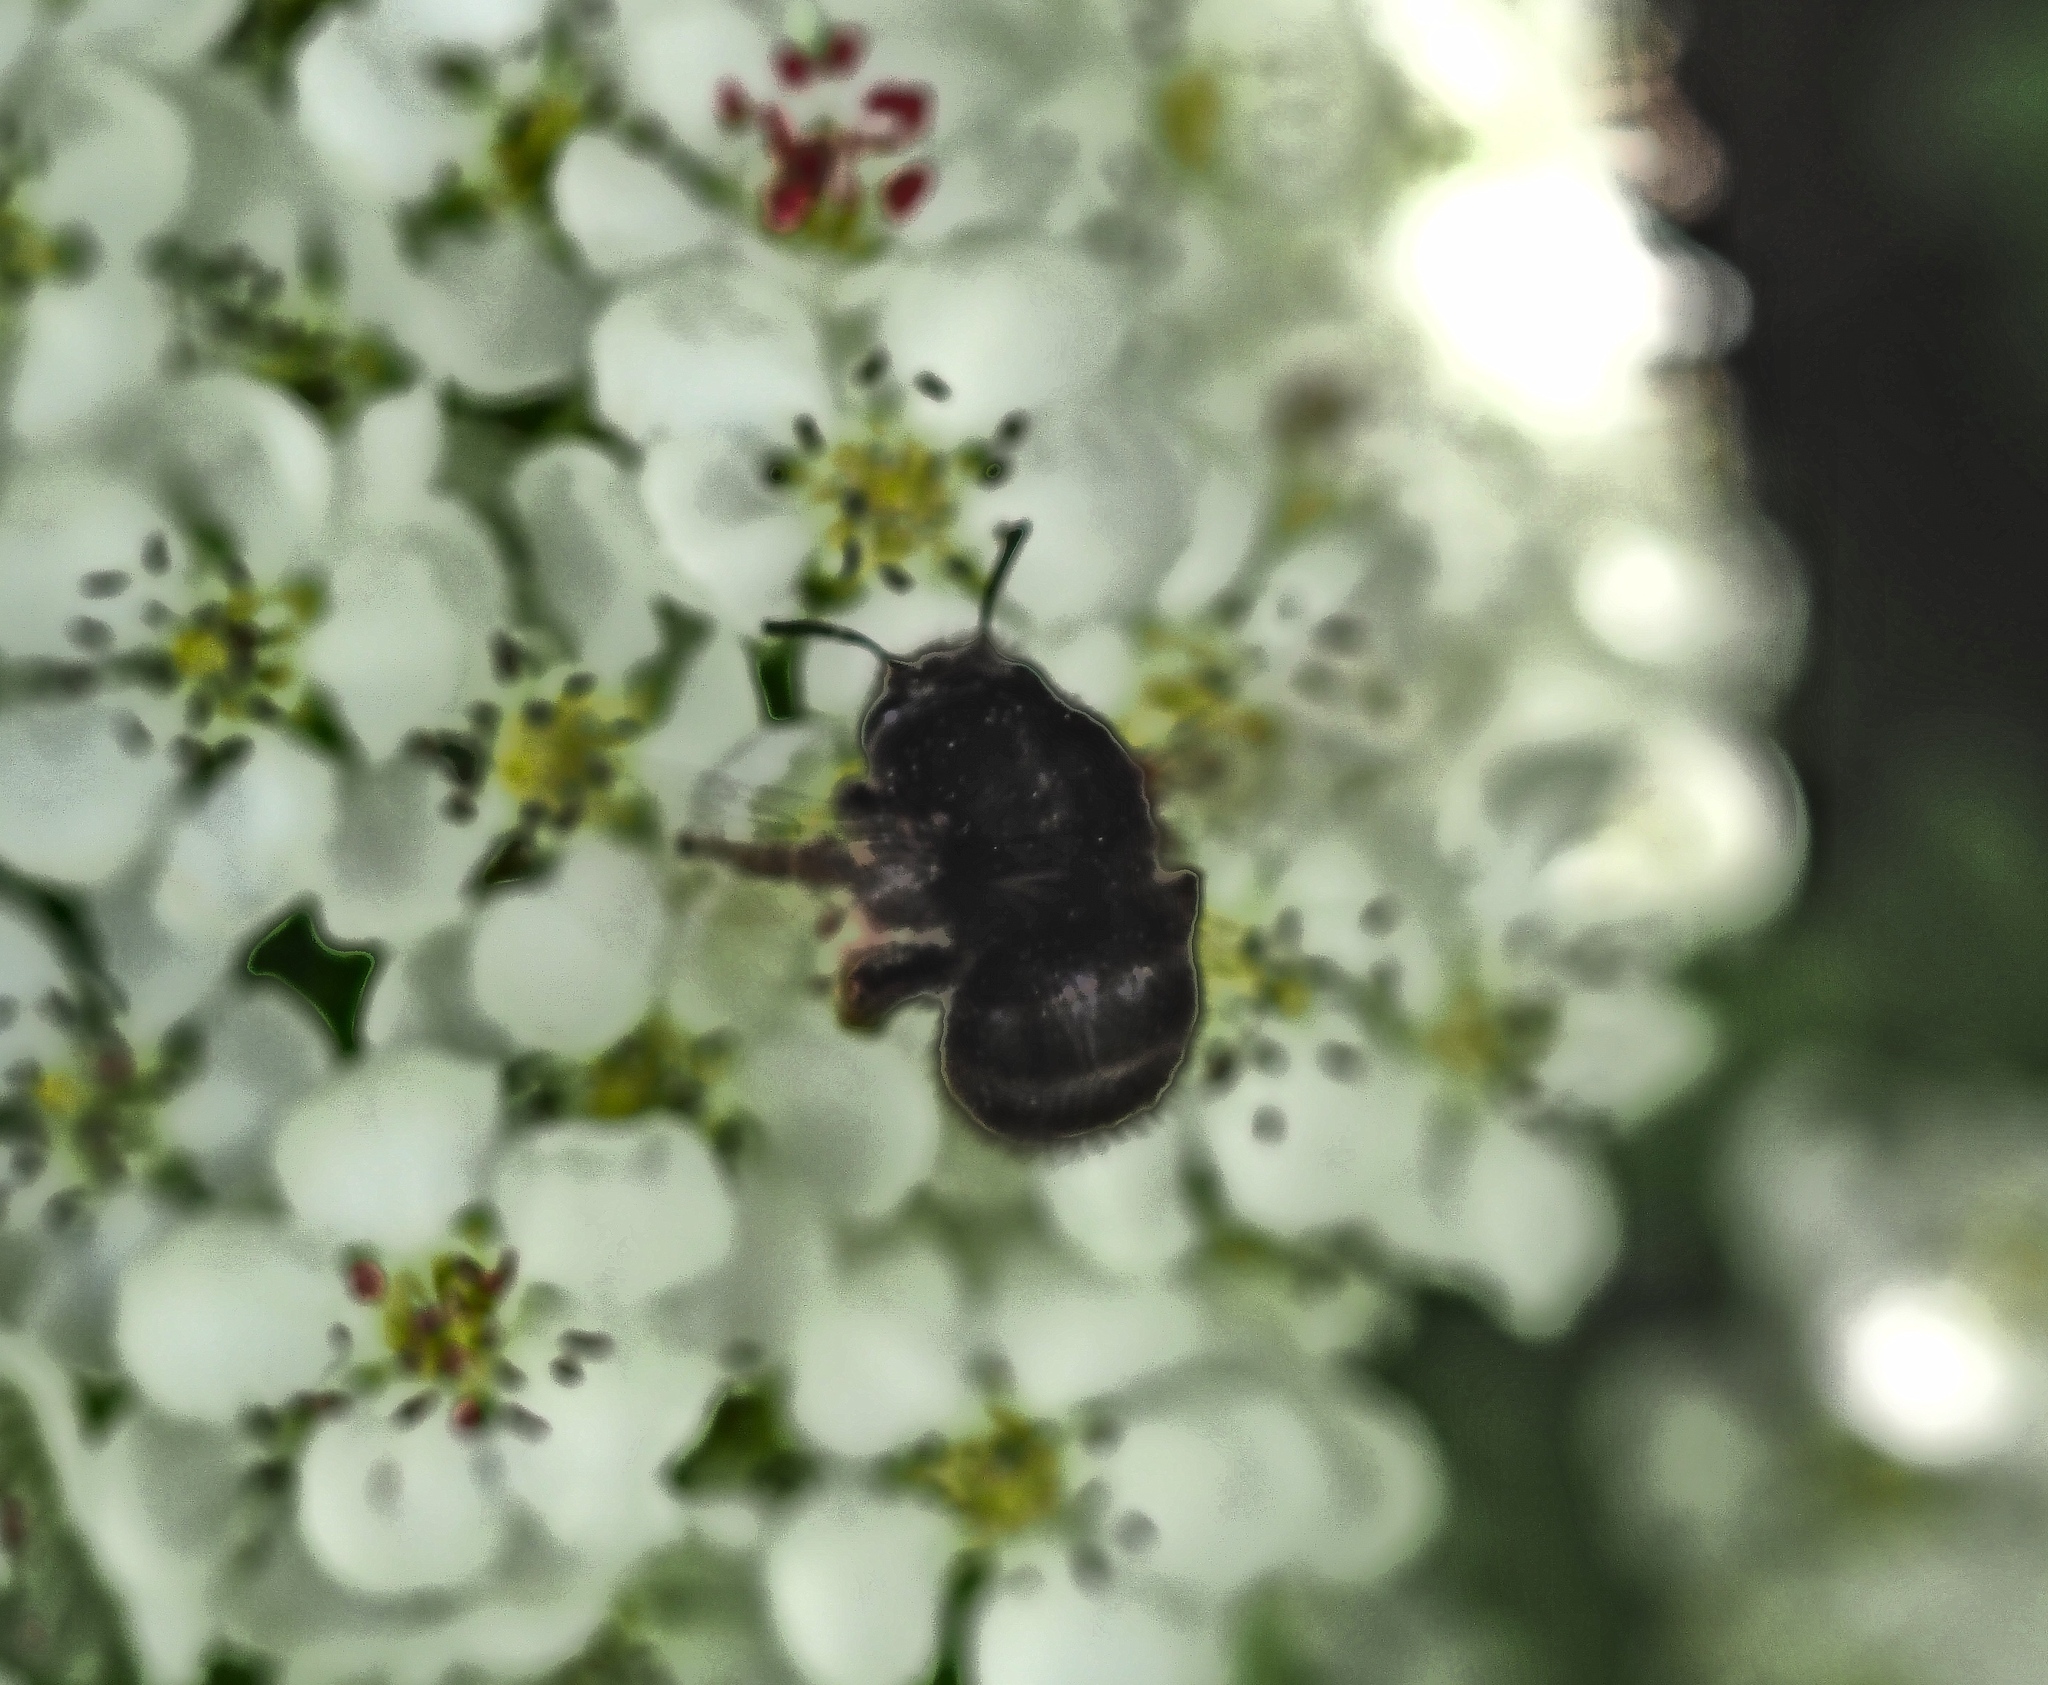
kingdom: Animalia
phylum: Arthropoda
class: Insecta
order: Hymenoptera
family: Apidae
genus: Anthophora
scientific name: Anthophora plumipes
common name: Hairy-footed flower bee
